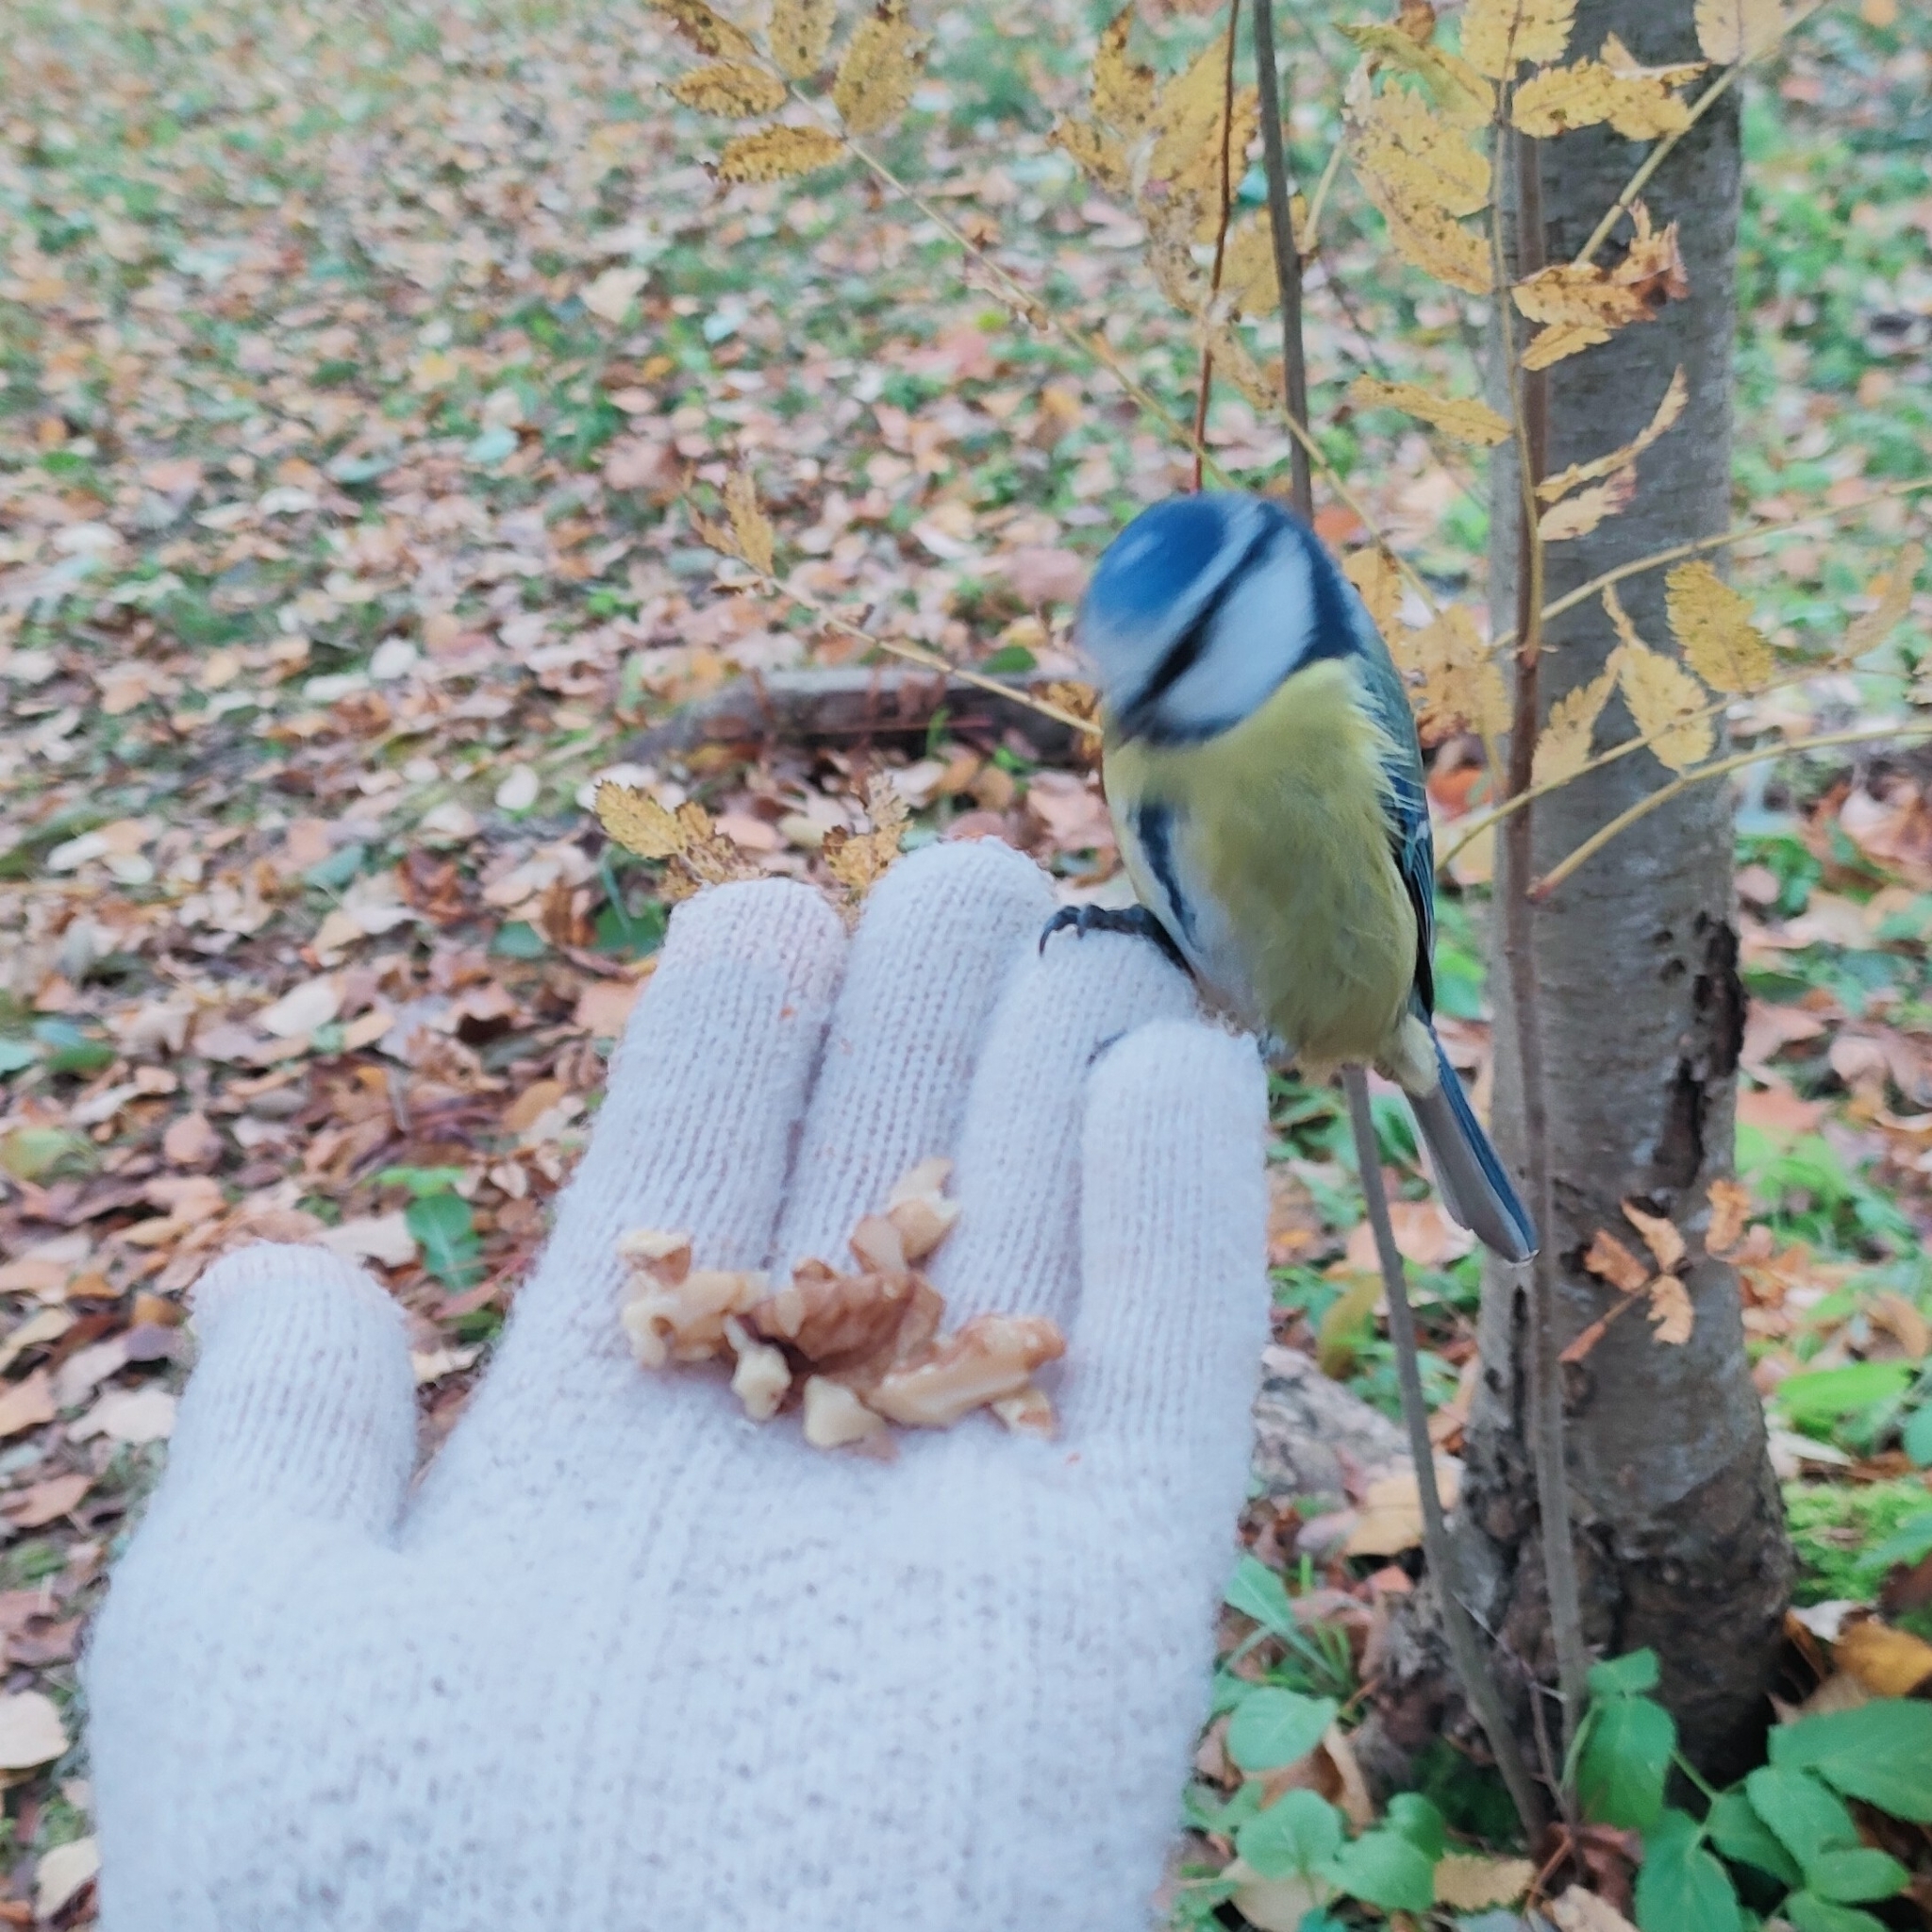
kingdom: Animalia
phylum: Chordata
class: Aves
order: Passeriformes
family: Paridae
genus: Cyanistes
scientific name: Cyanistes caeruleus
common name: Eurasian blue tit
